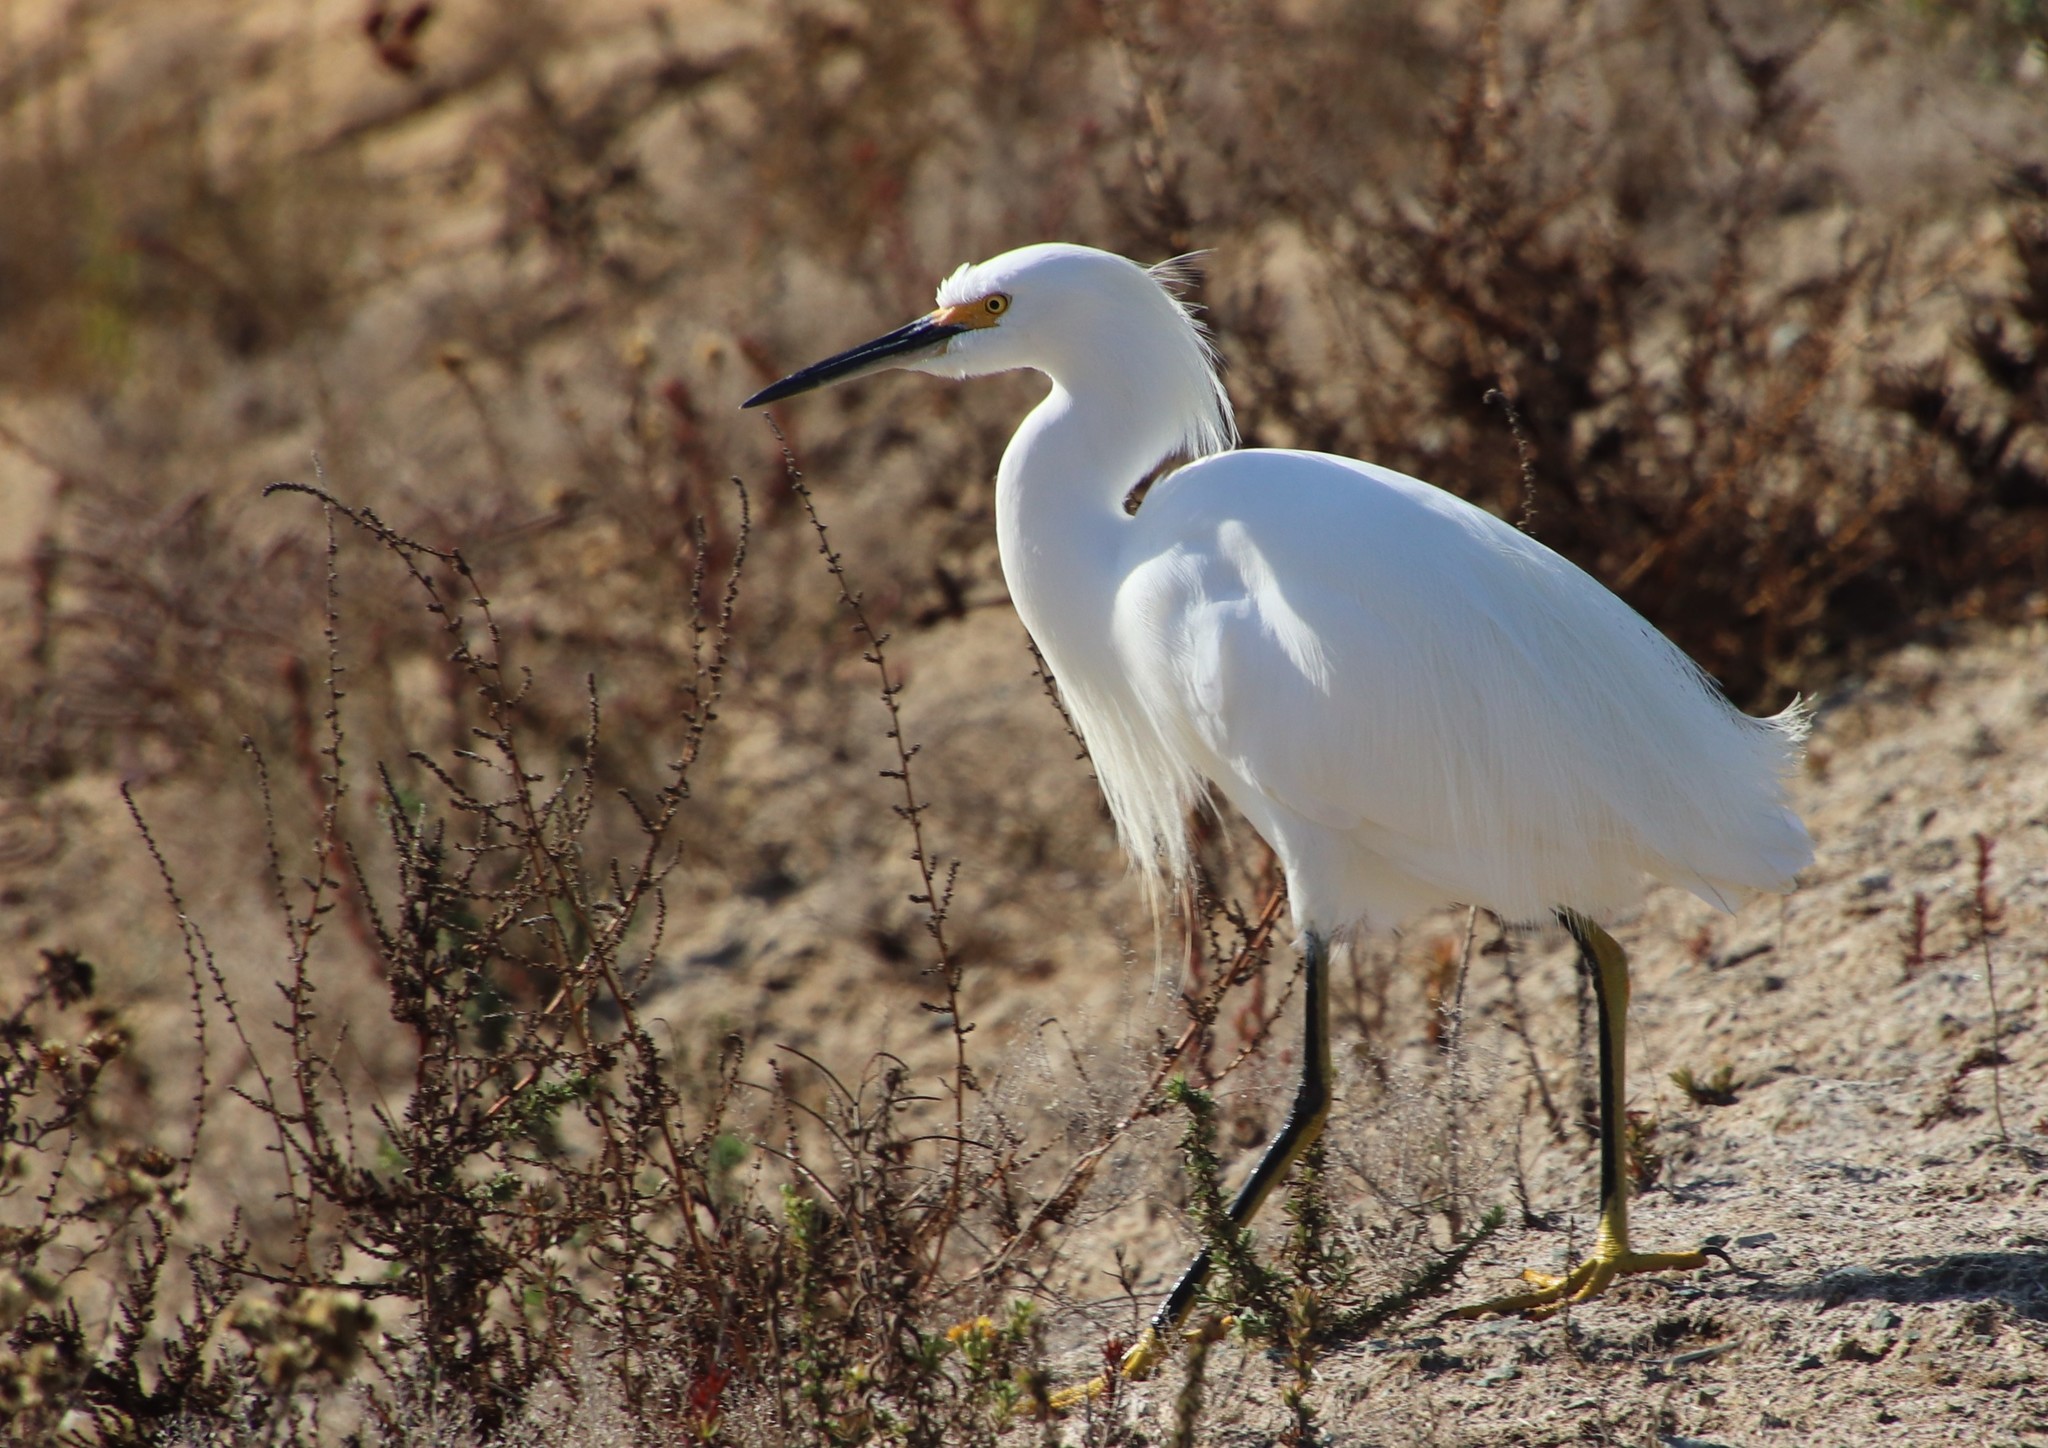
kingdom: Animalia
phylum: Chordata
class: Aves
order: Pelecaniformes
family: Ardeidae
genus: Egretta
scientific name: Egretta thula
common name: Snowy egret
